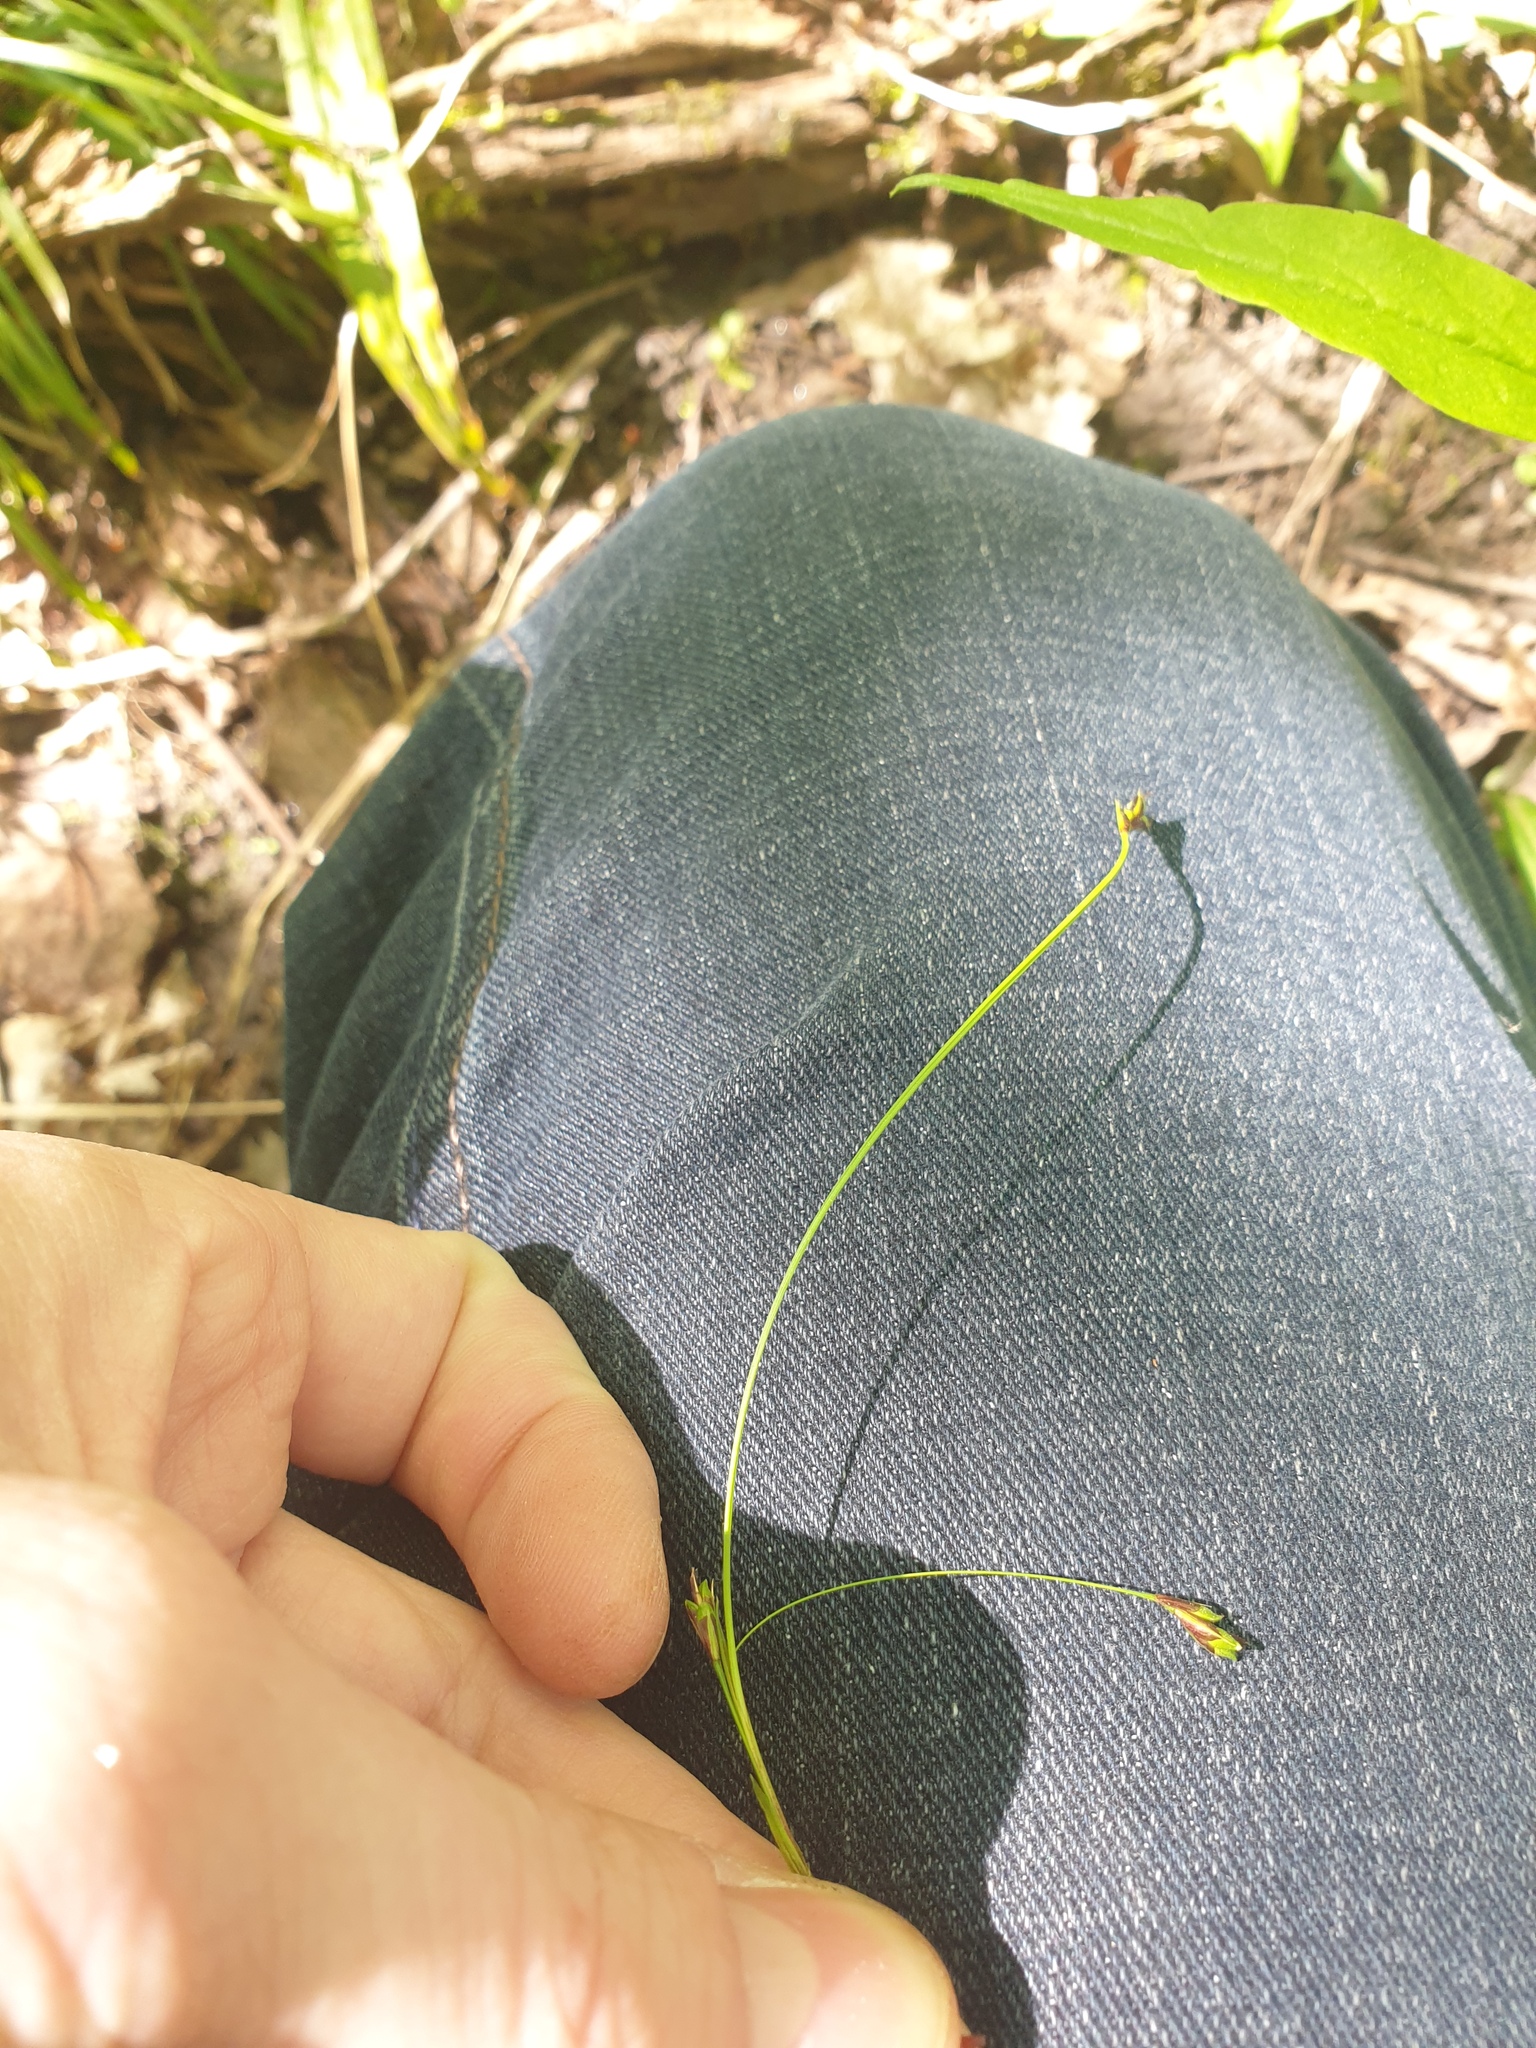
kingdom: Plantae
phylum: Tracheophyta
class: Liliopsida
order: Poales
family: Cyperaceae
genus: Carex
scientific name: Carex pedunculata
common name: Pedunculate sedge
